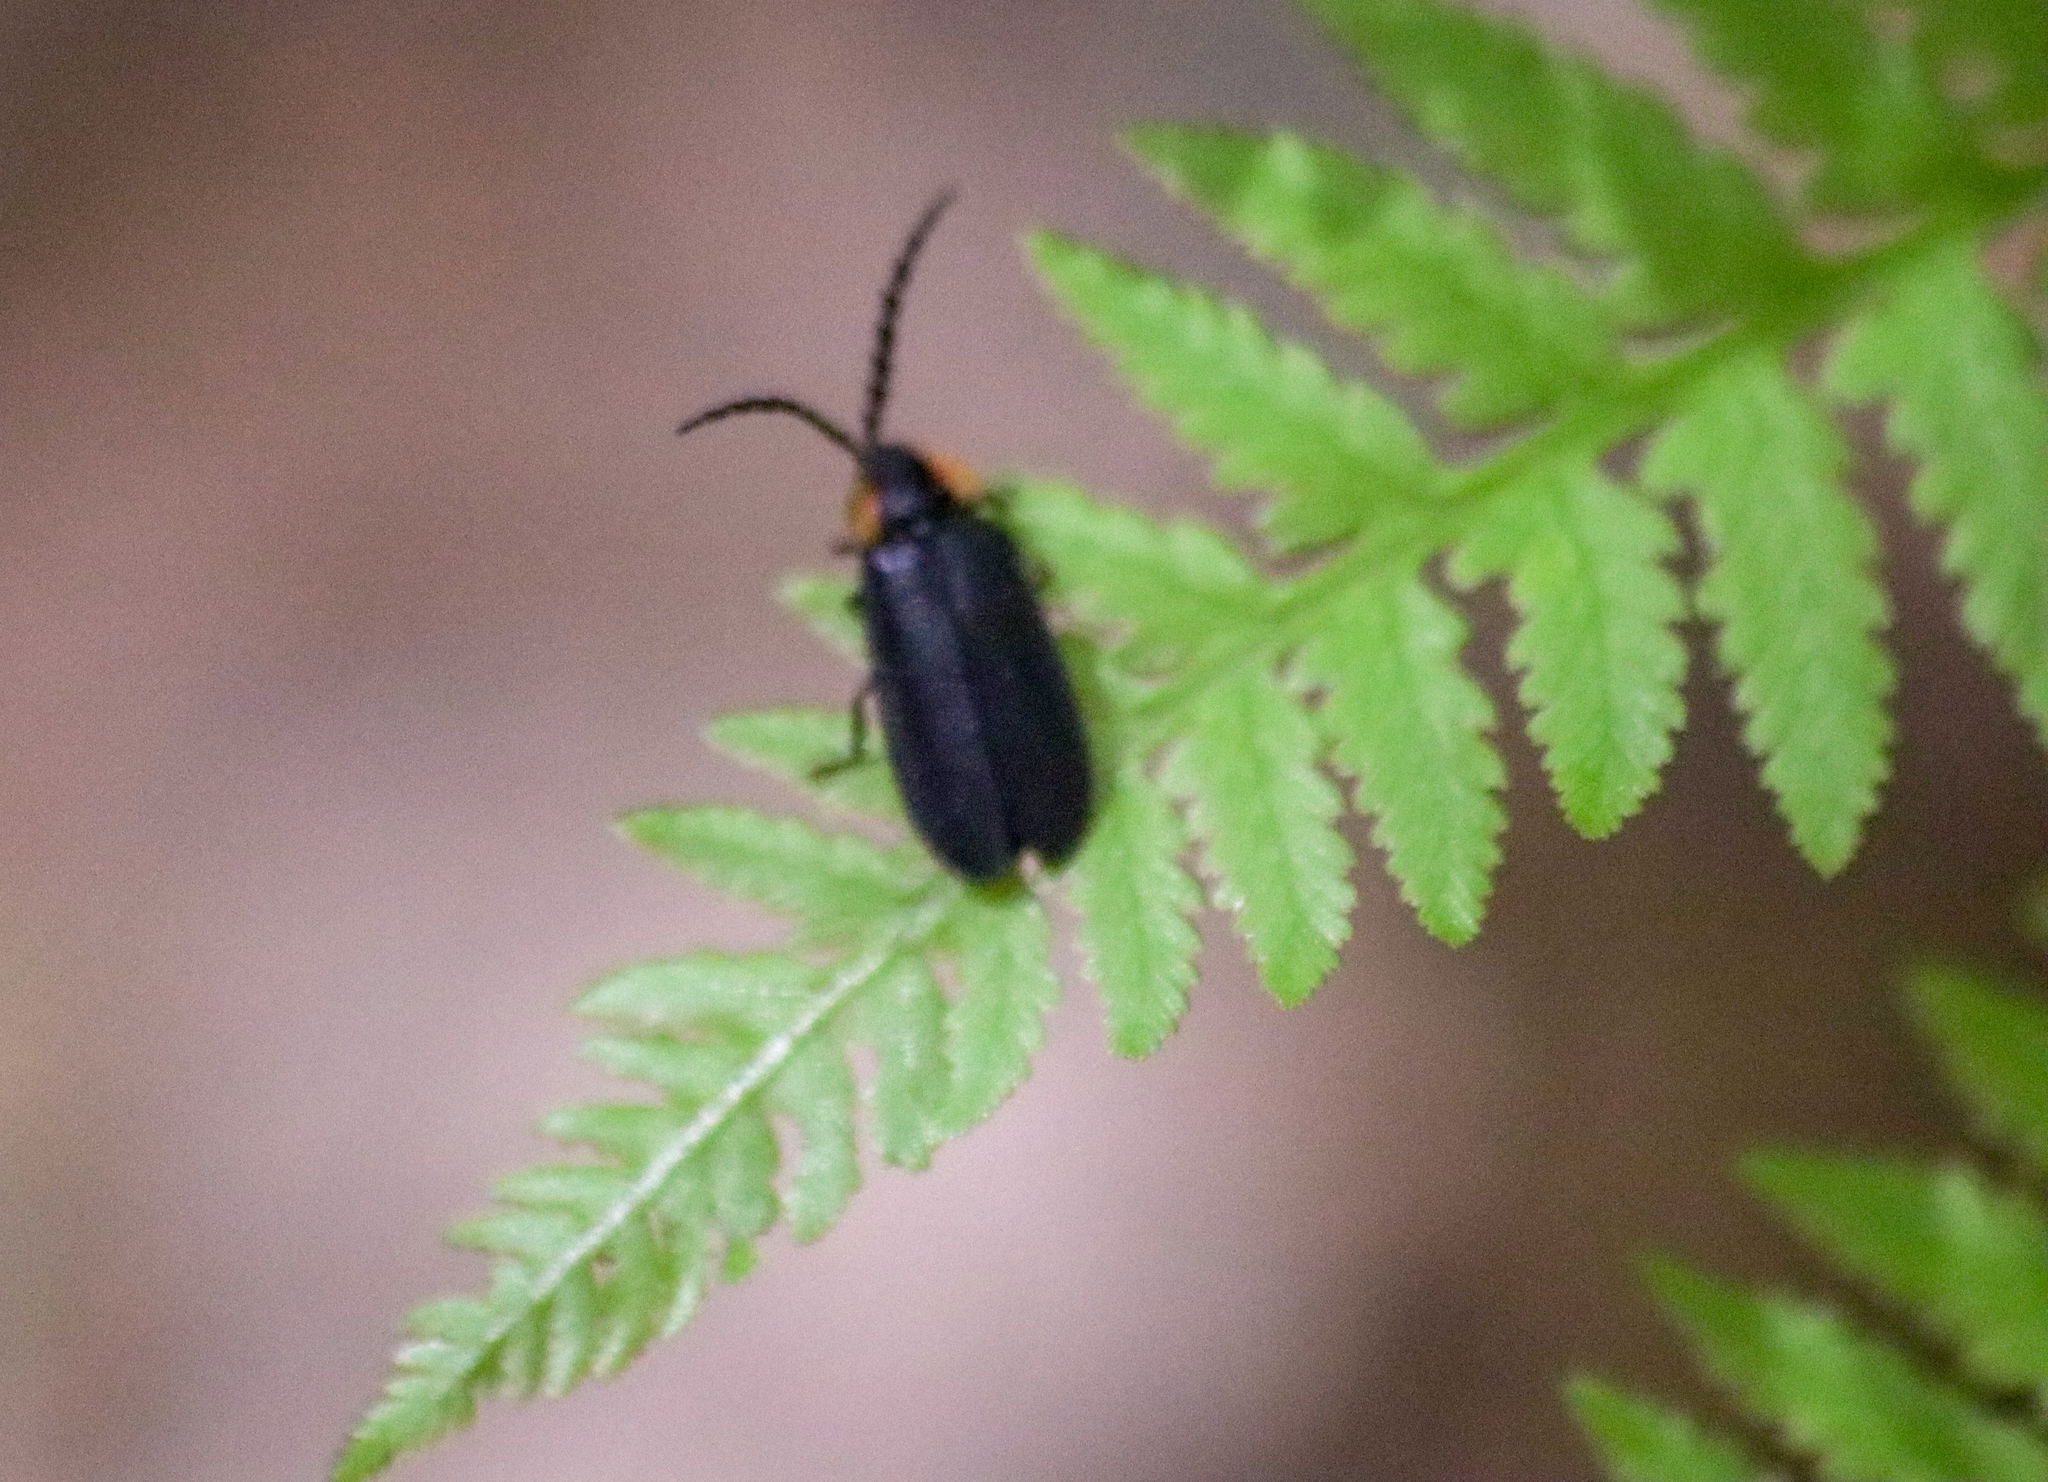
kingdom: Animalia
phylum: Arthropoda
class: Insecta
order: Coleoptera
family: Lampyridae
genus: Lucidota
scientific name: Lucidota atra
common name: Black firefly
